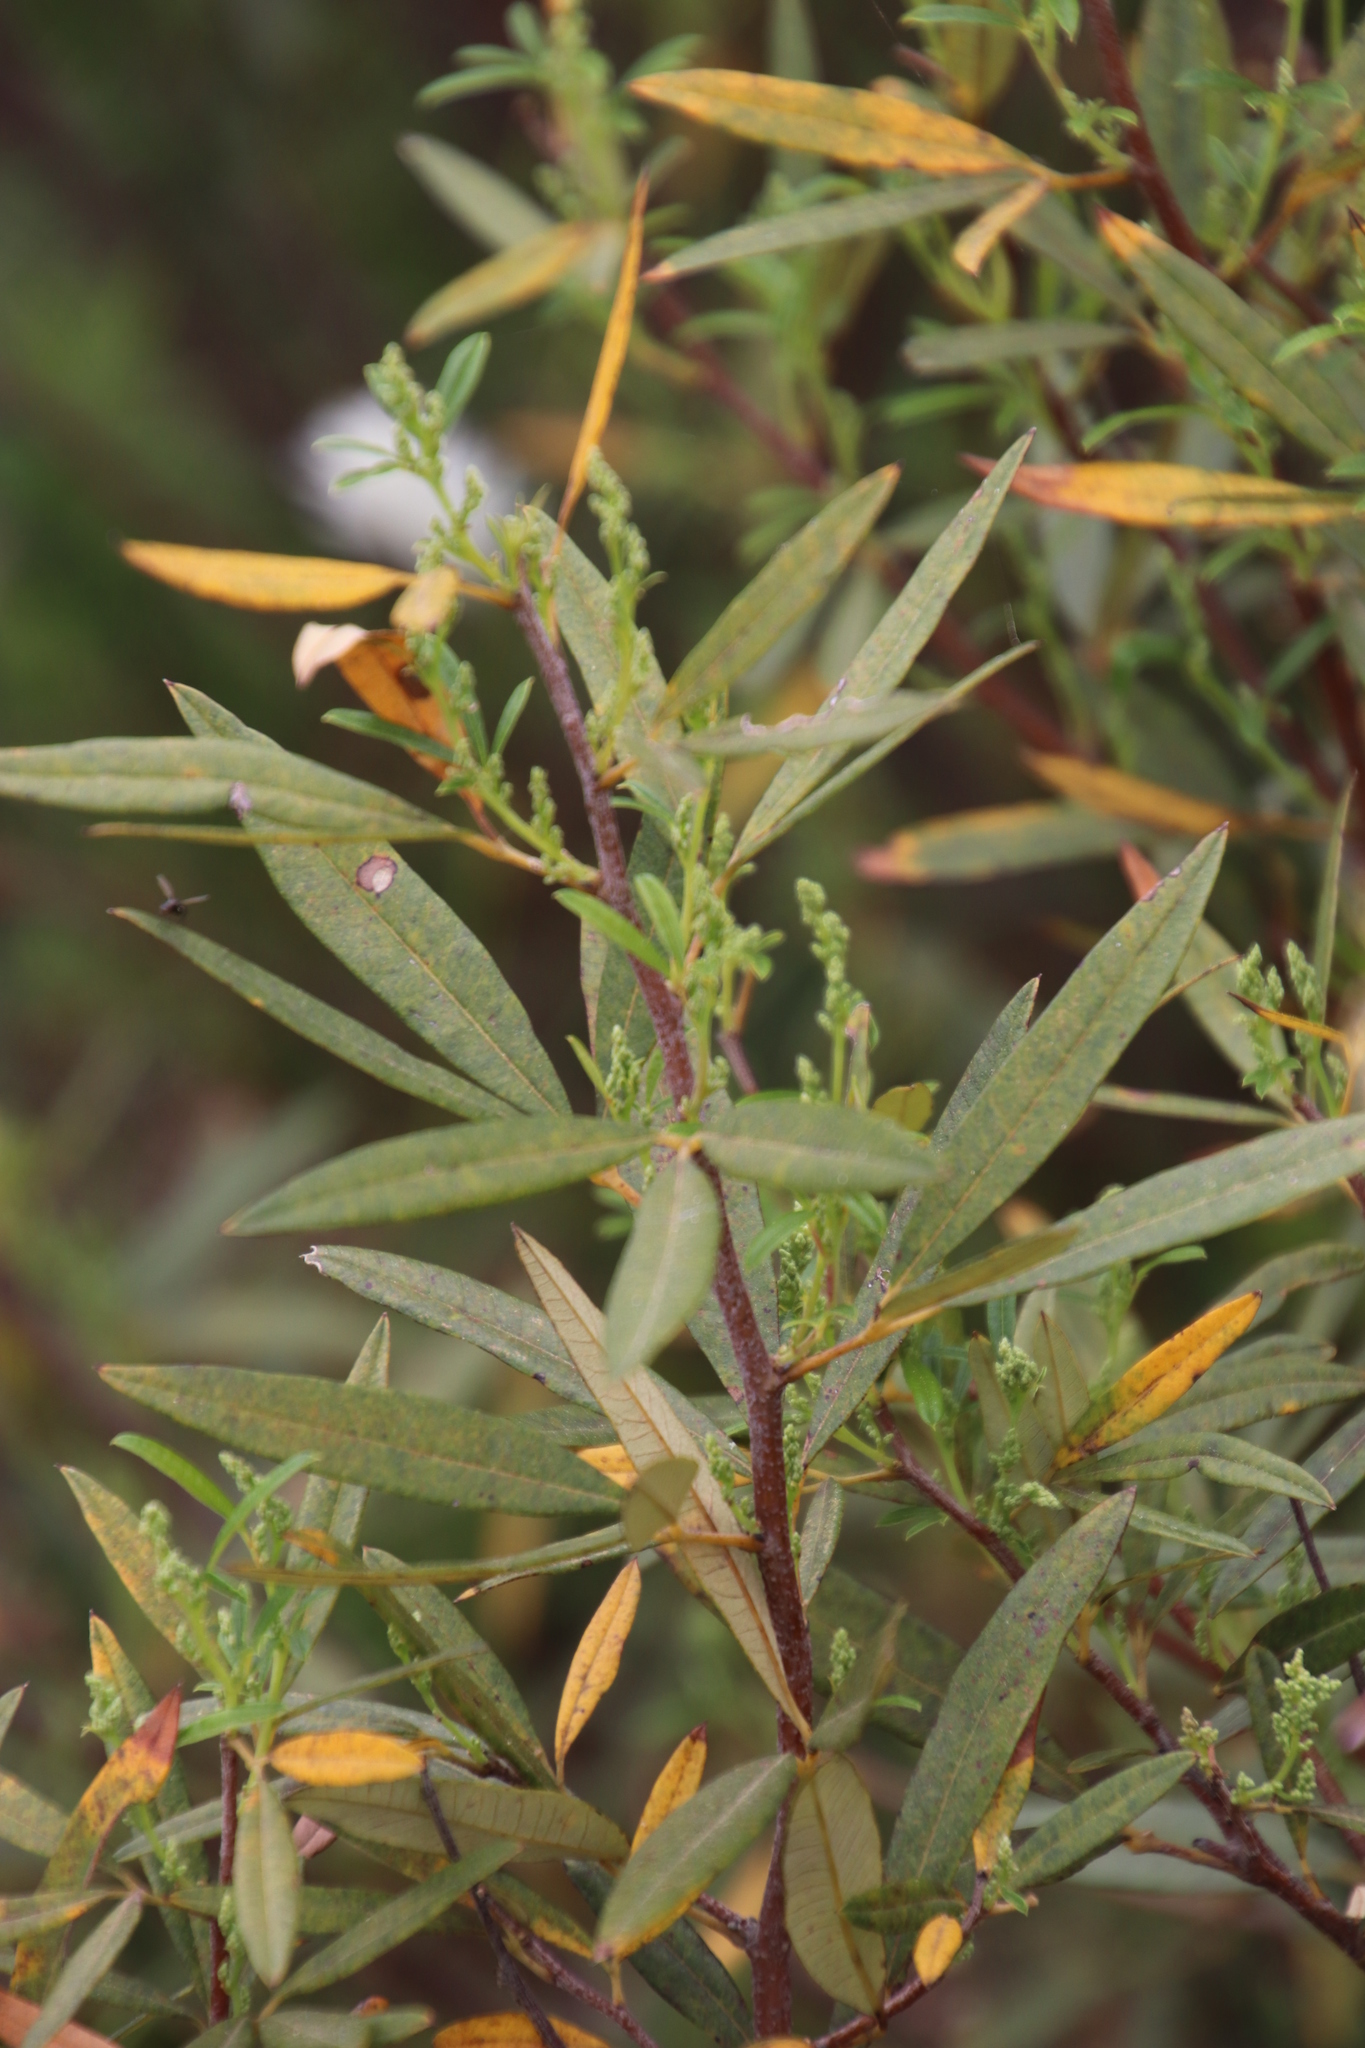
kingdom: Plantae
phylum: Tracheophyta
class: Magnoliopsida
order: Sapindales
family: Anacardiaceae
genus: Searsia
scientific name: Searsia angustifolia
